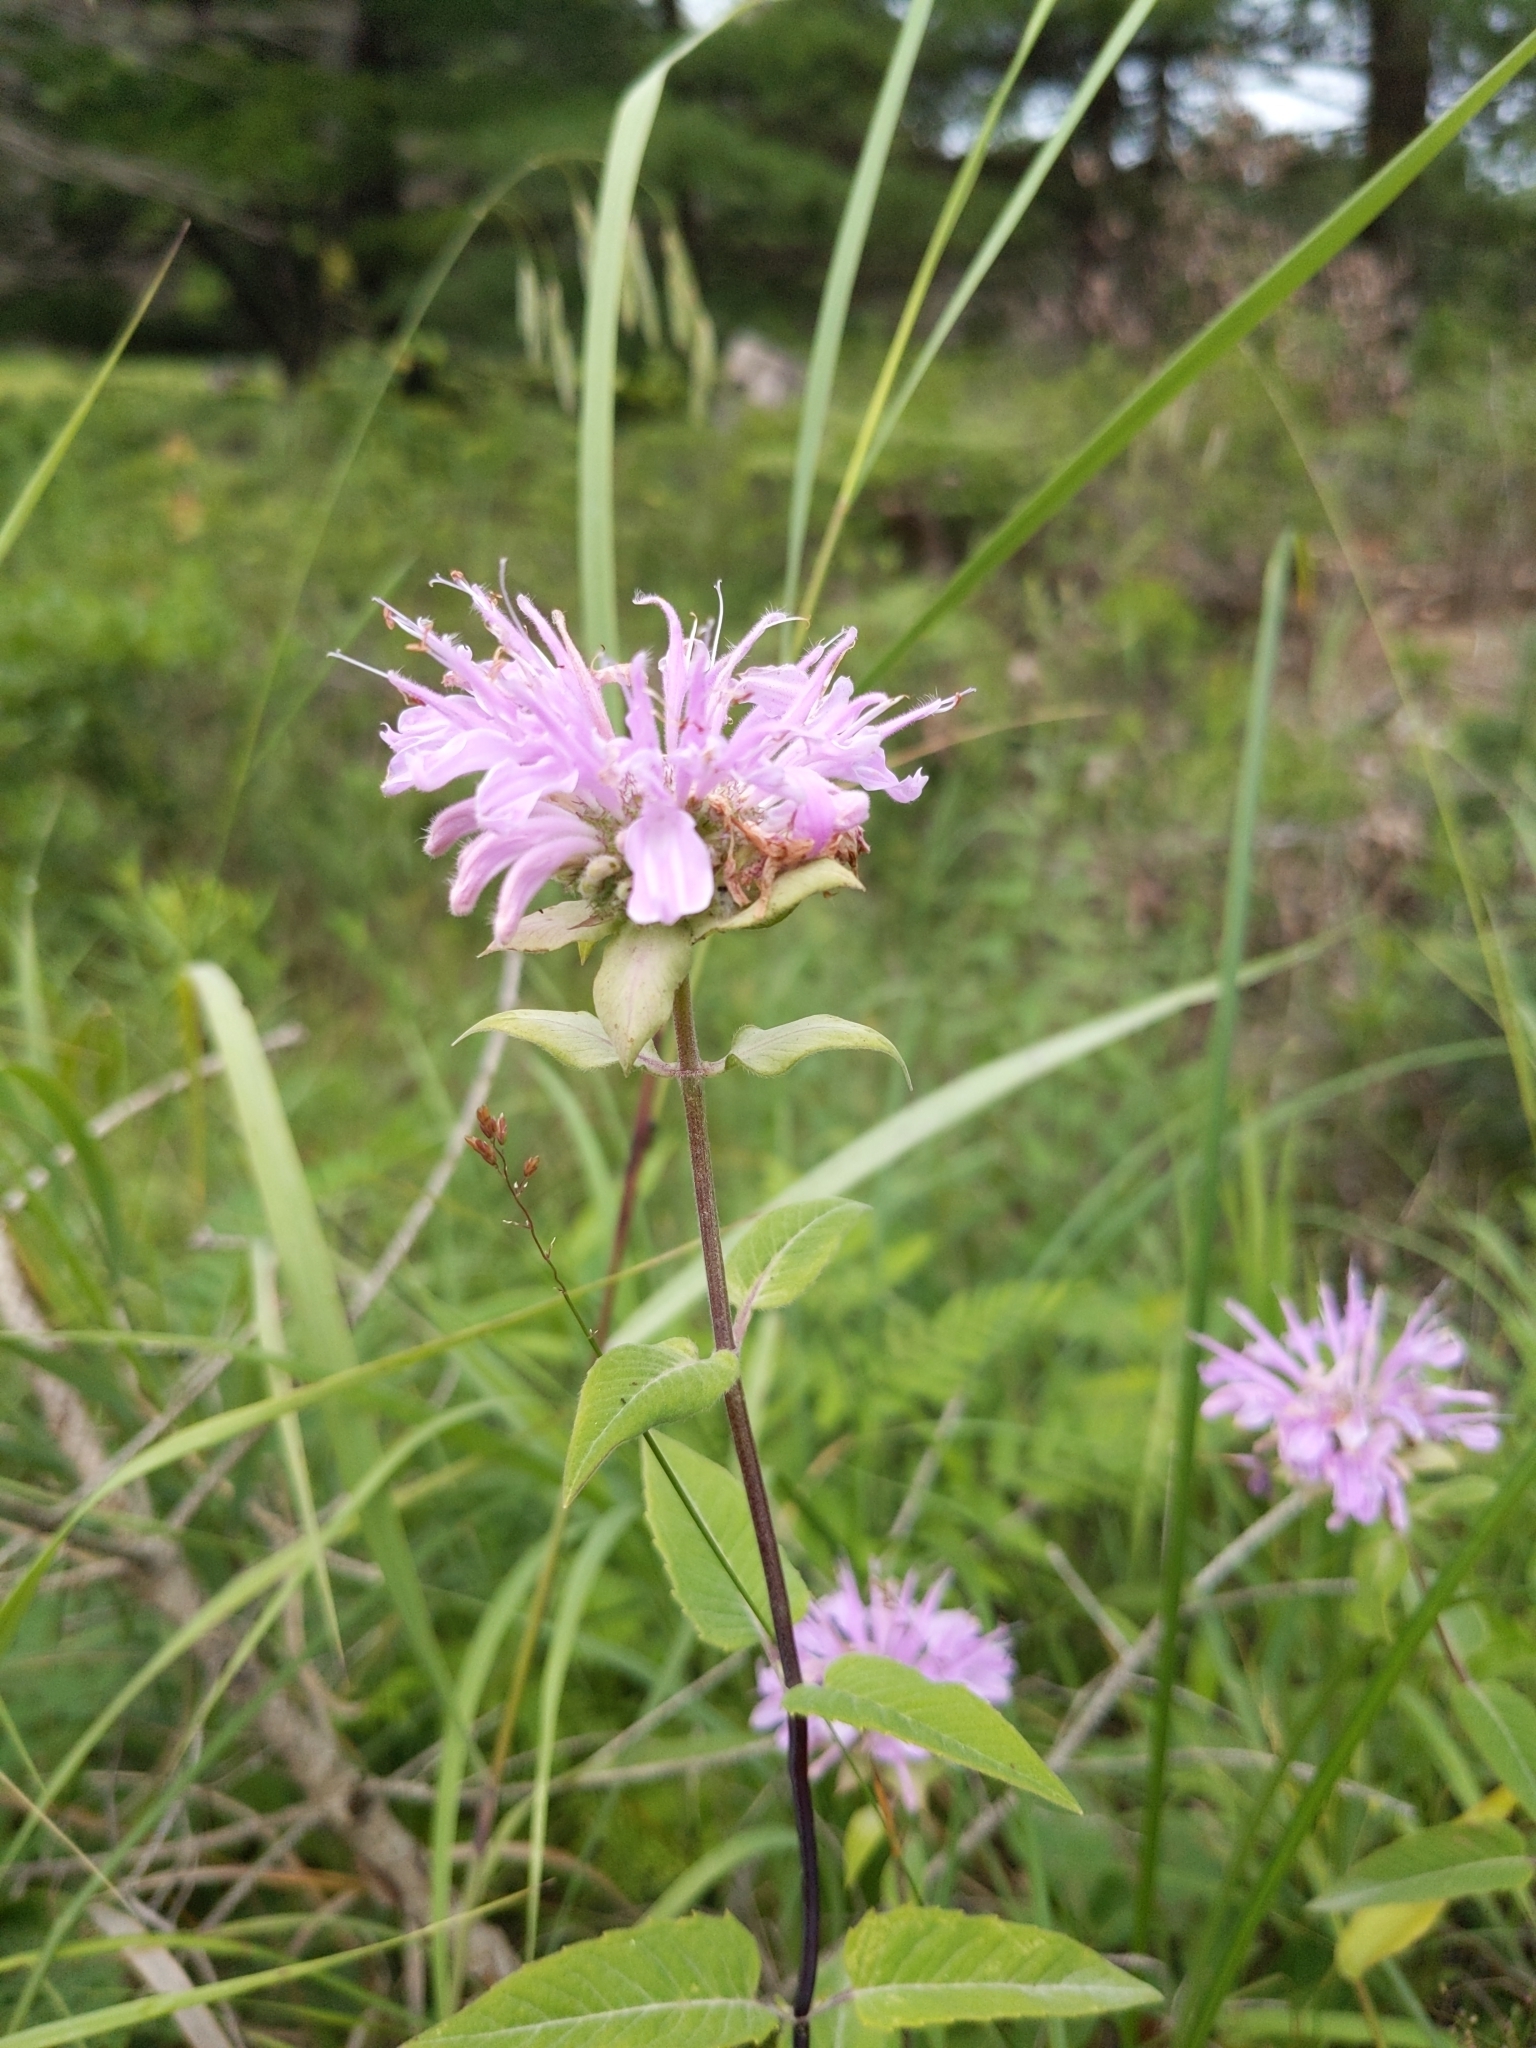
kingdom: Plantae
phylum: Tracheophyta
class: Magnoliopsida
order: Lamiales
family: Lamiaceae
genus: Monarda
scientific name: Monarda fistulosa
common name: Purple beebalm
